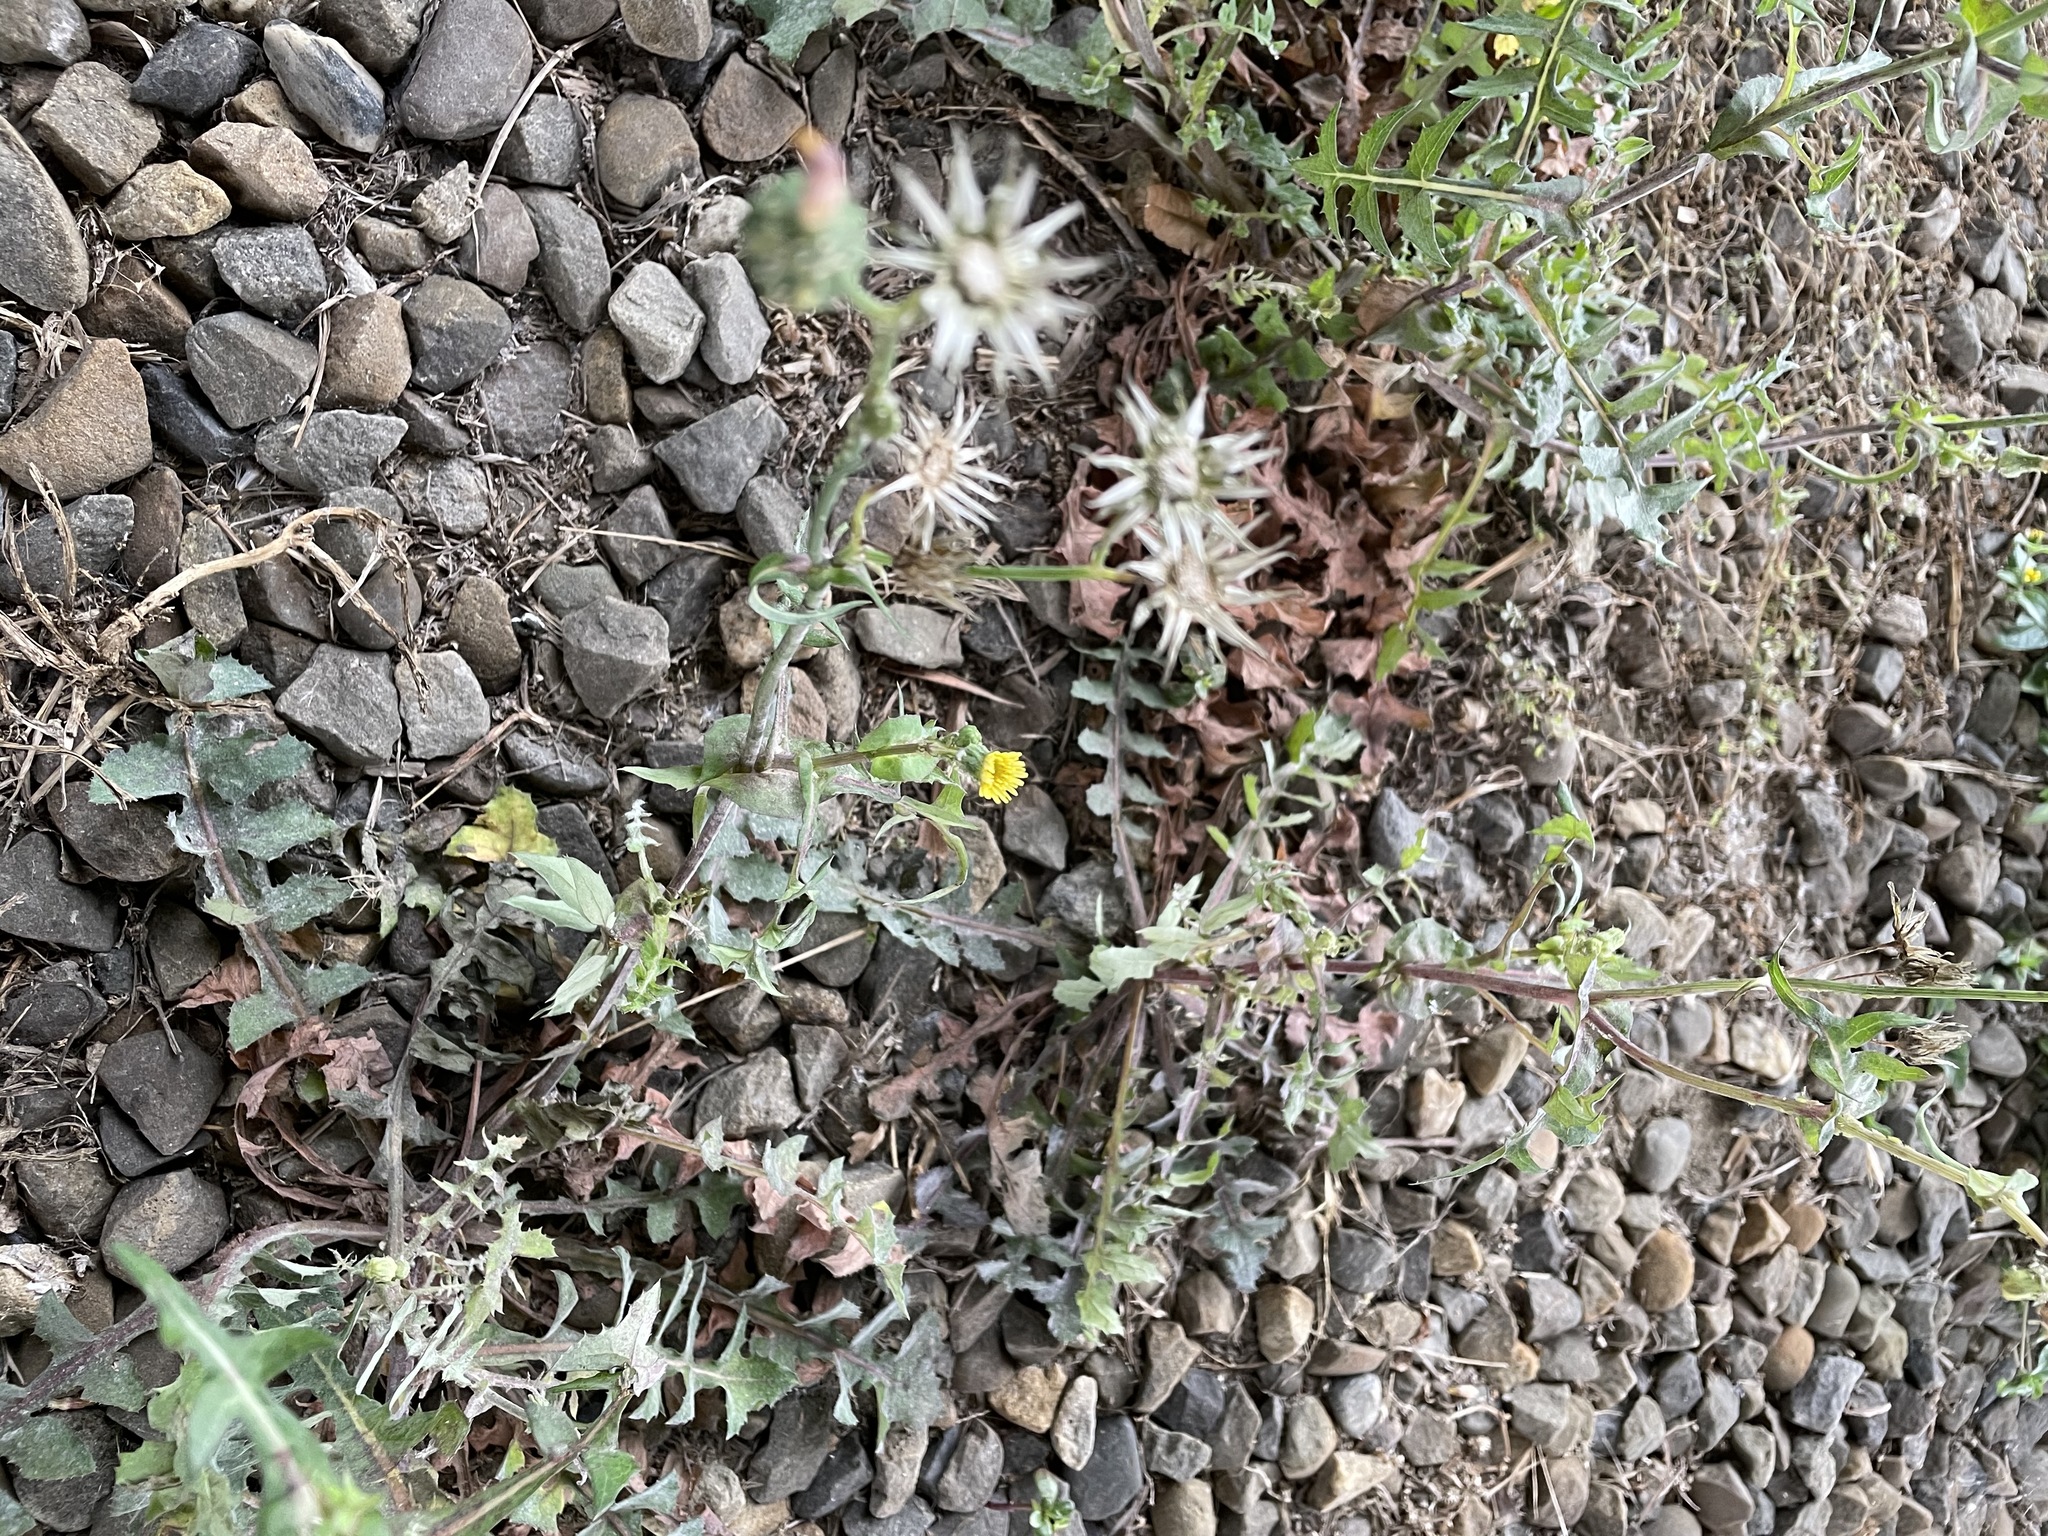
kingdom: Plantae
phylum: Tracheophyta
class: Magnoliopsida
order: Asterales
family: Asteraceae
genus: Sonchus
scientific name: Sonchus oleraceus
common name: Common sowthistle
